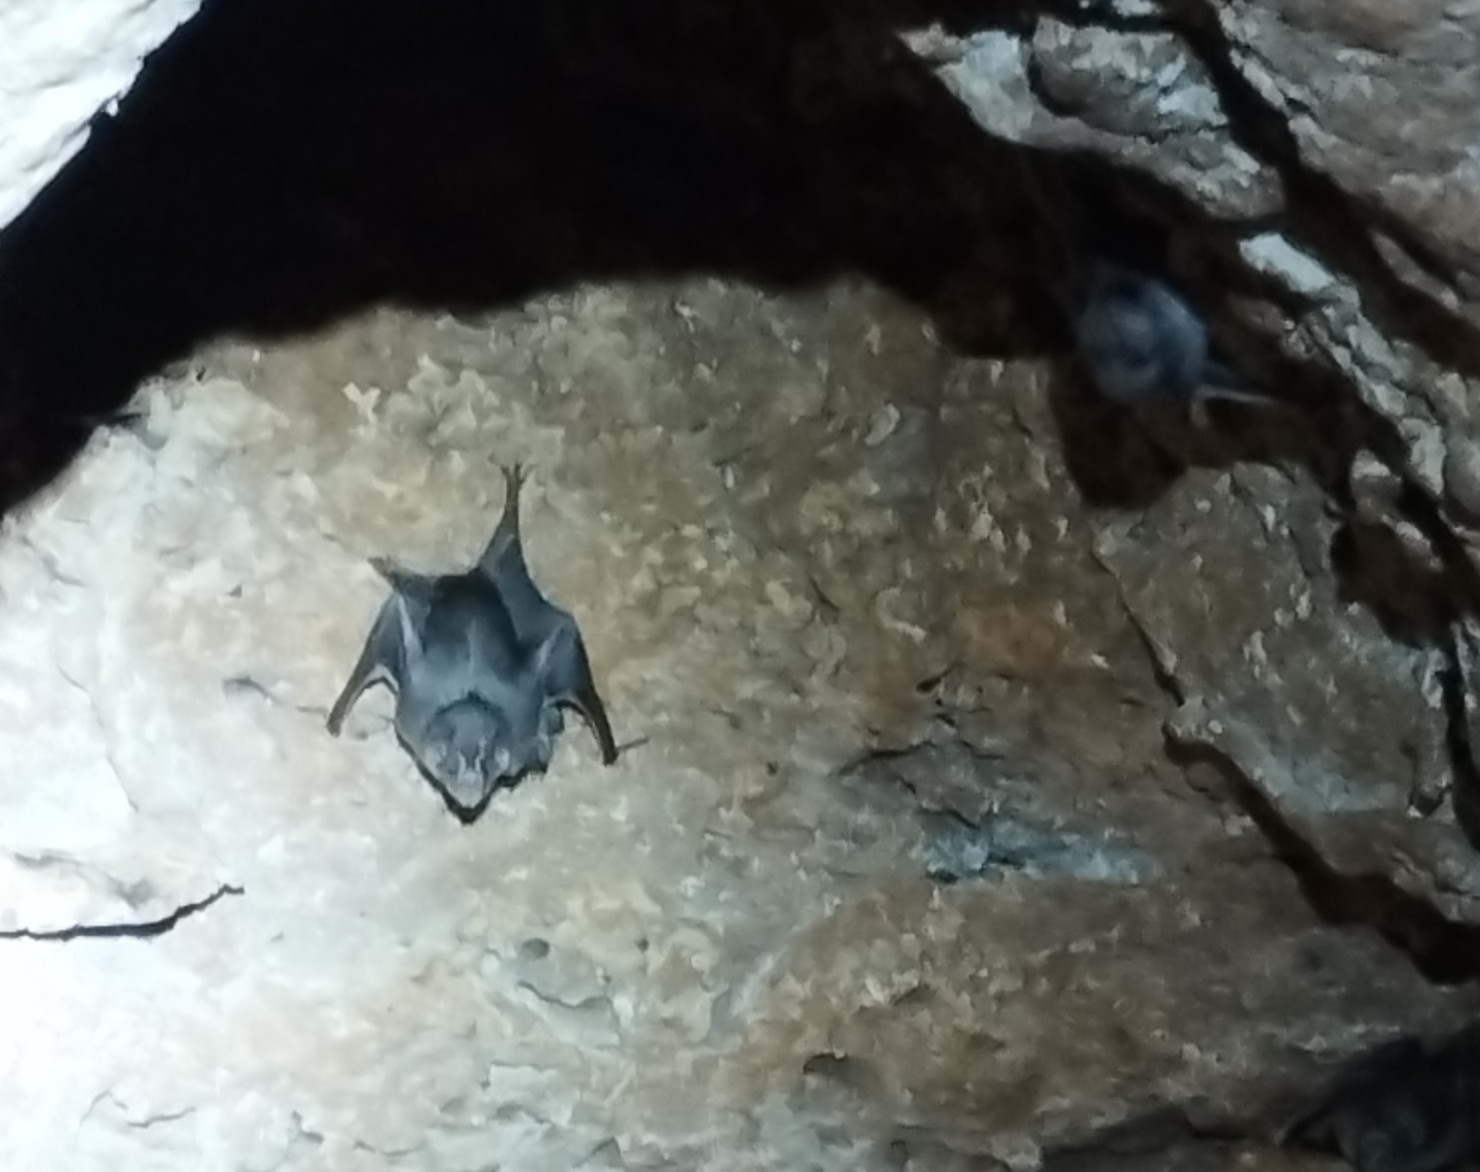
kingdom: Animalia
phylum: Chordata
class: Mammalia
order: Chiroptera
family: Phyllostomidae
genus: Desmodus
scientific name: Desmodus rotundus
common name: Common vampire bat
